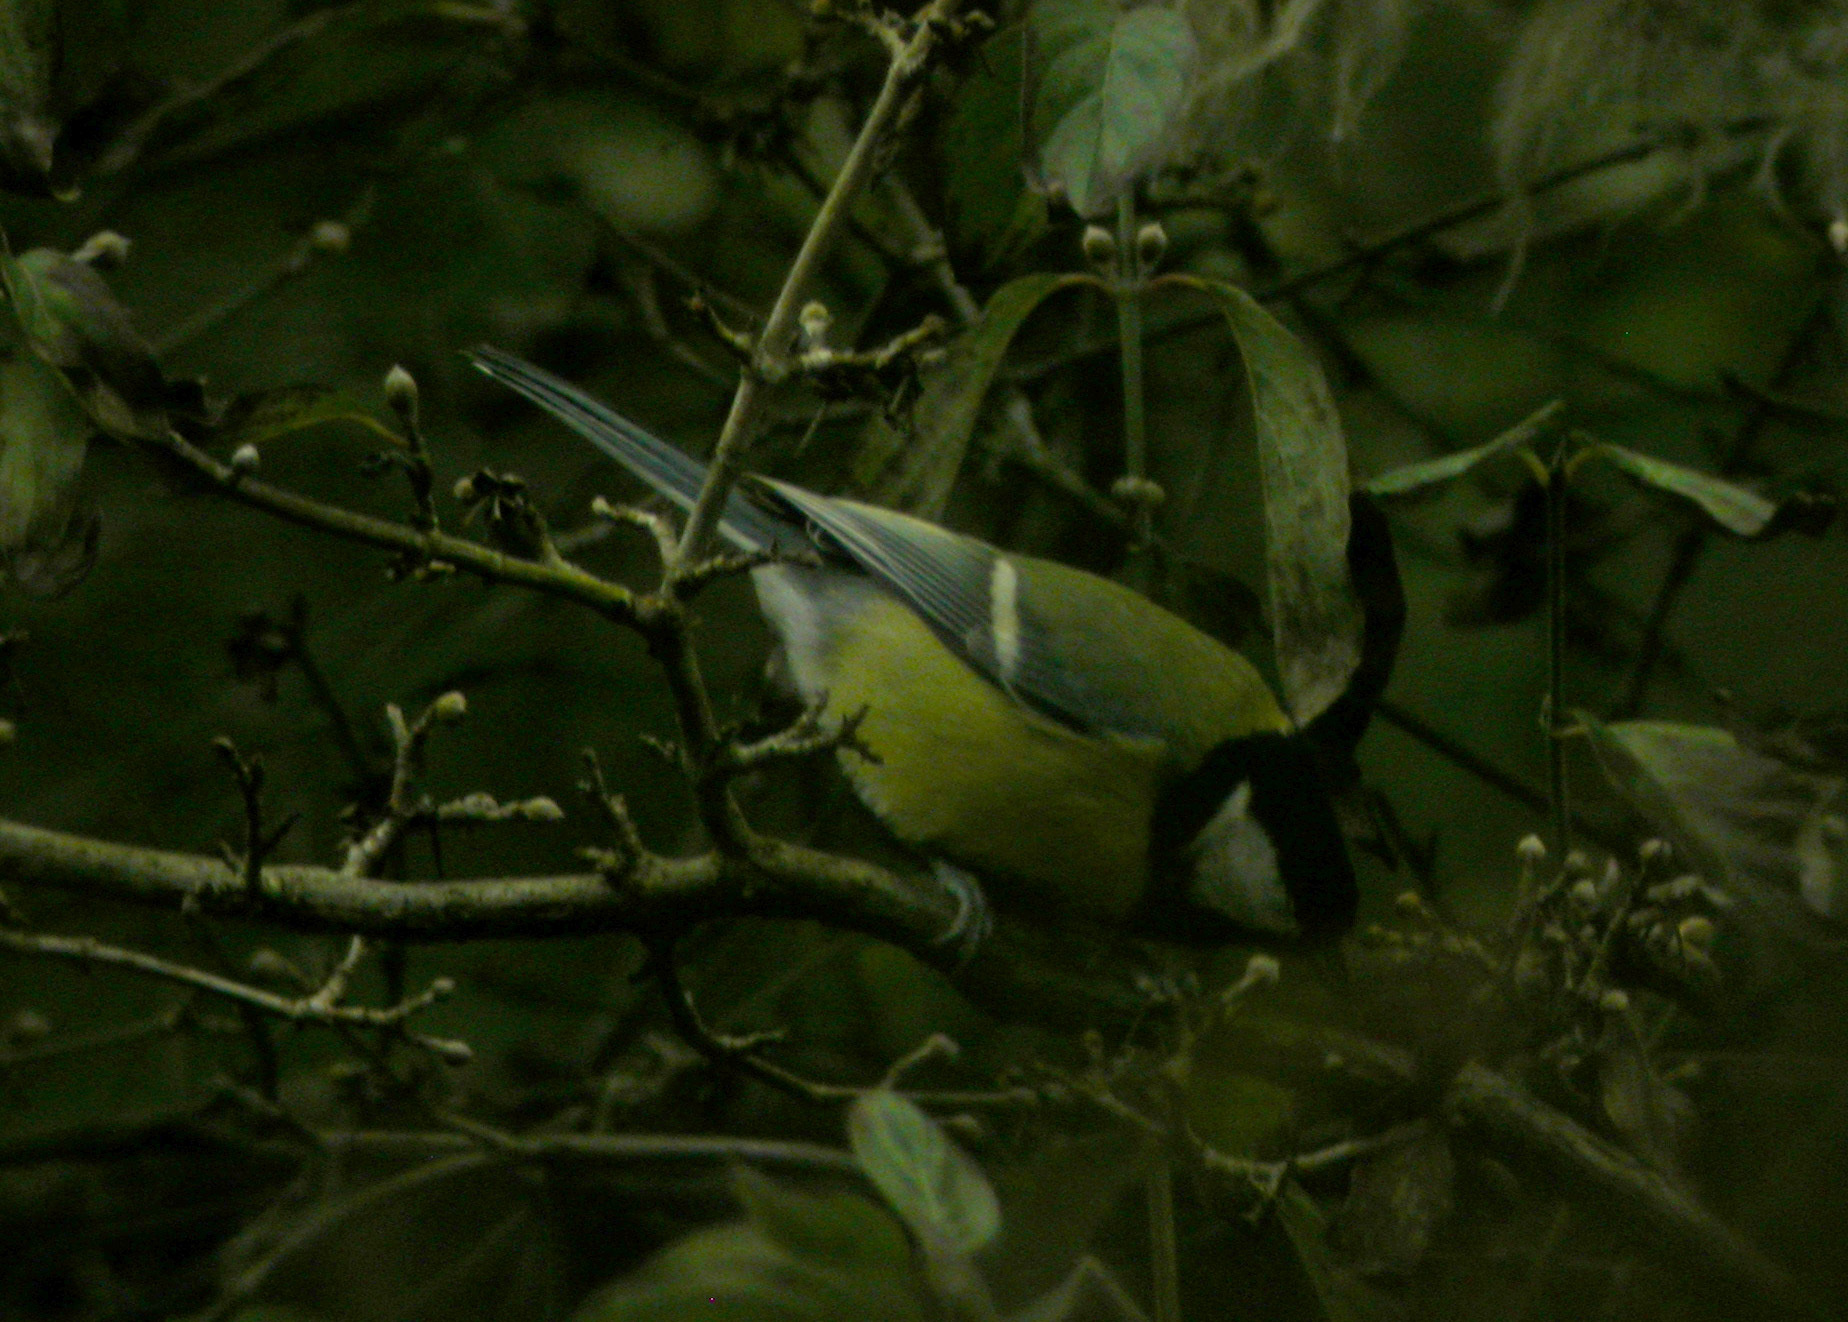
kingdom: Animalia
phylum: Chordata
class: Aves
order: Passeriformes
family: Paridae
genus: Parus
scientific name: Parus major
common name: Great tit
